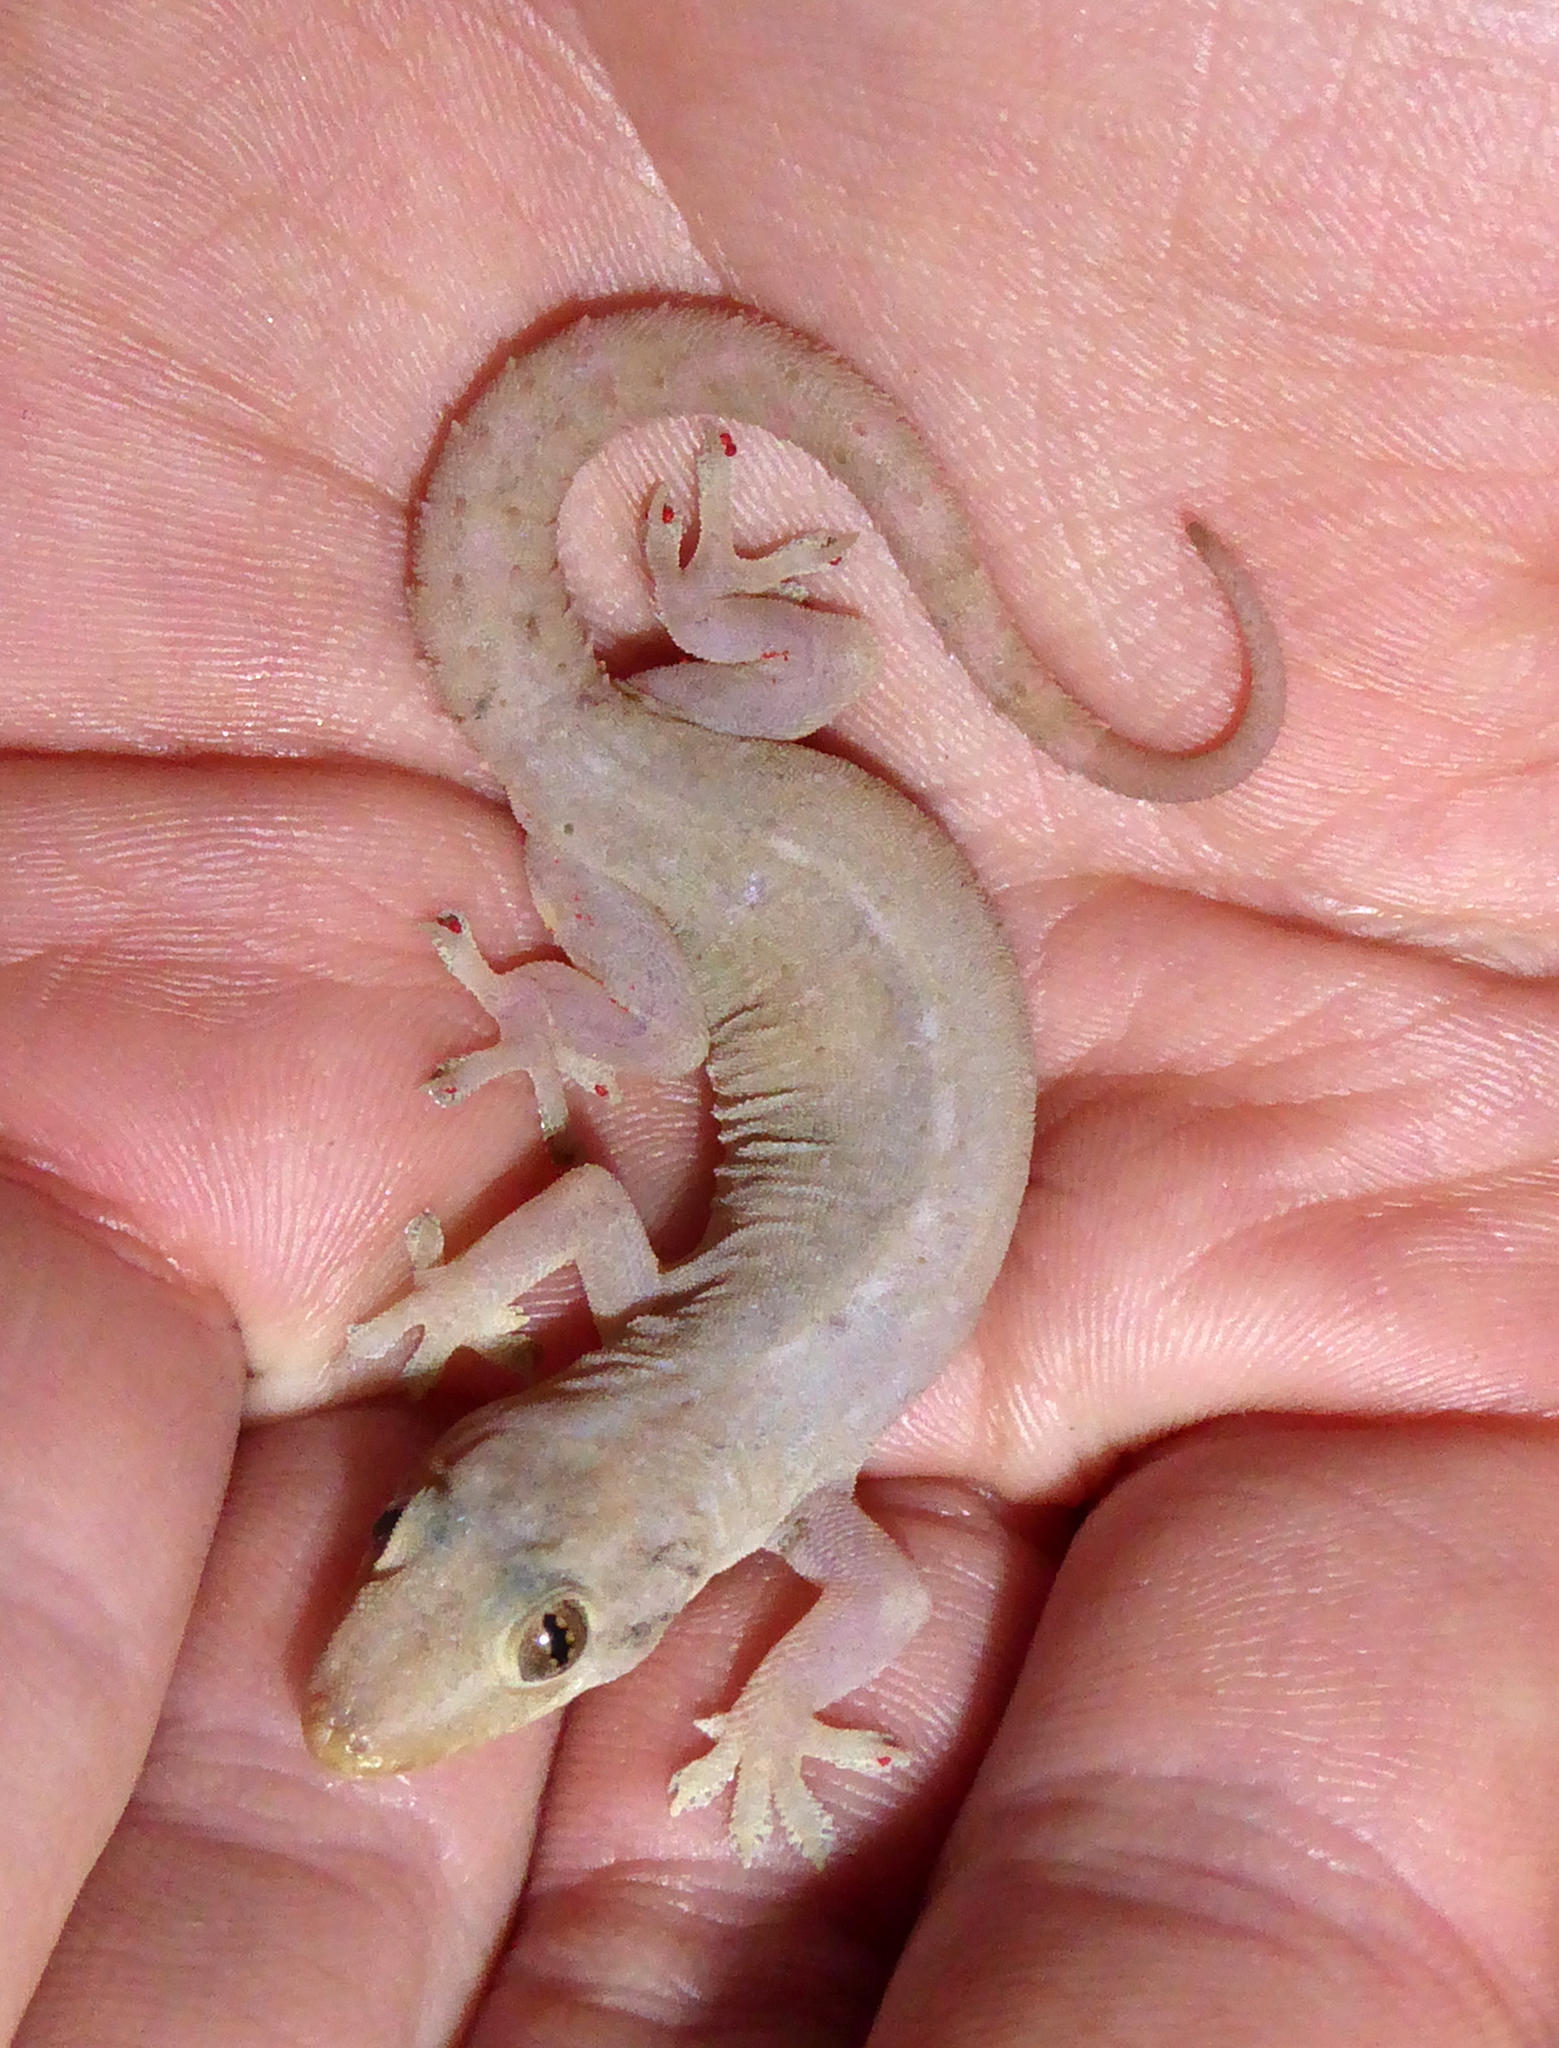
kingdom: Animalia
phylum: Chordata
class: Squamata
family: Gekkonidae
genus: Hemidactylus
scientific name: Hemidactylus frenatus
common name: Common house gecko
